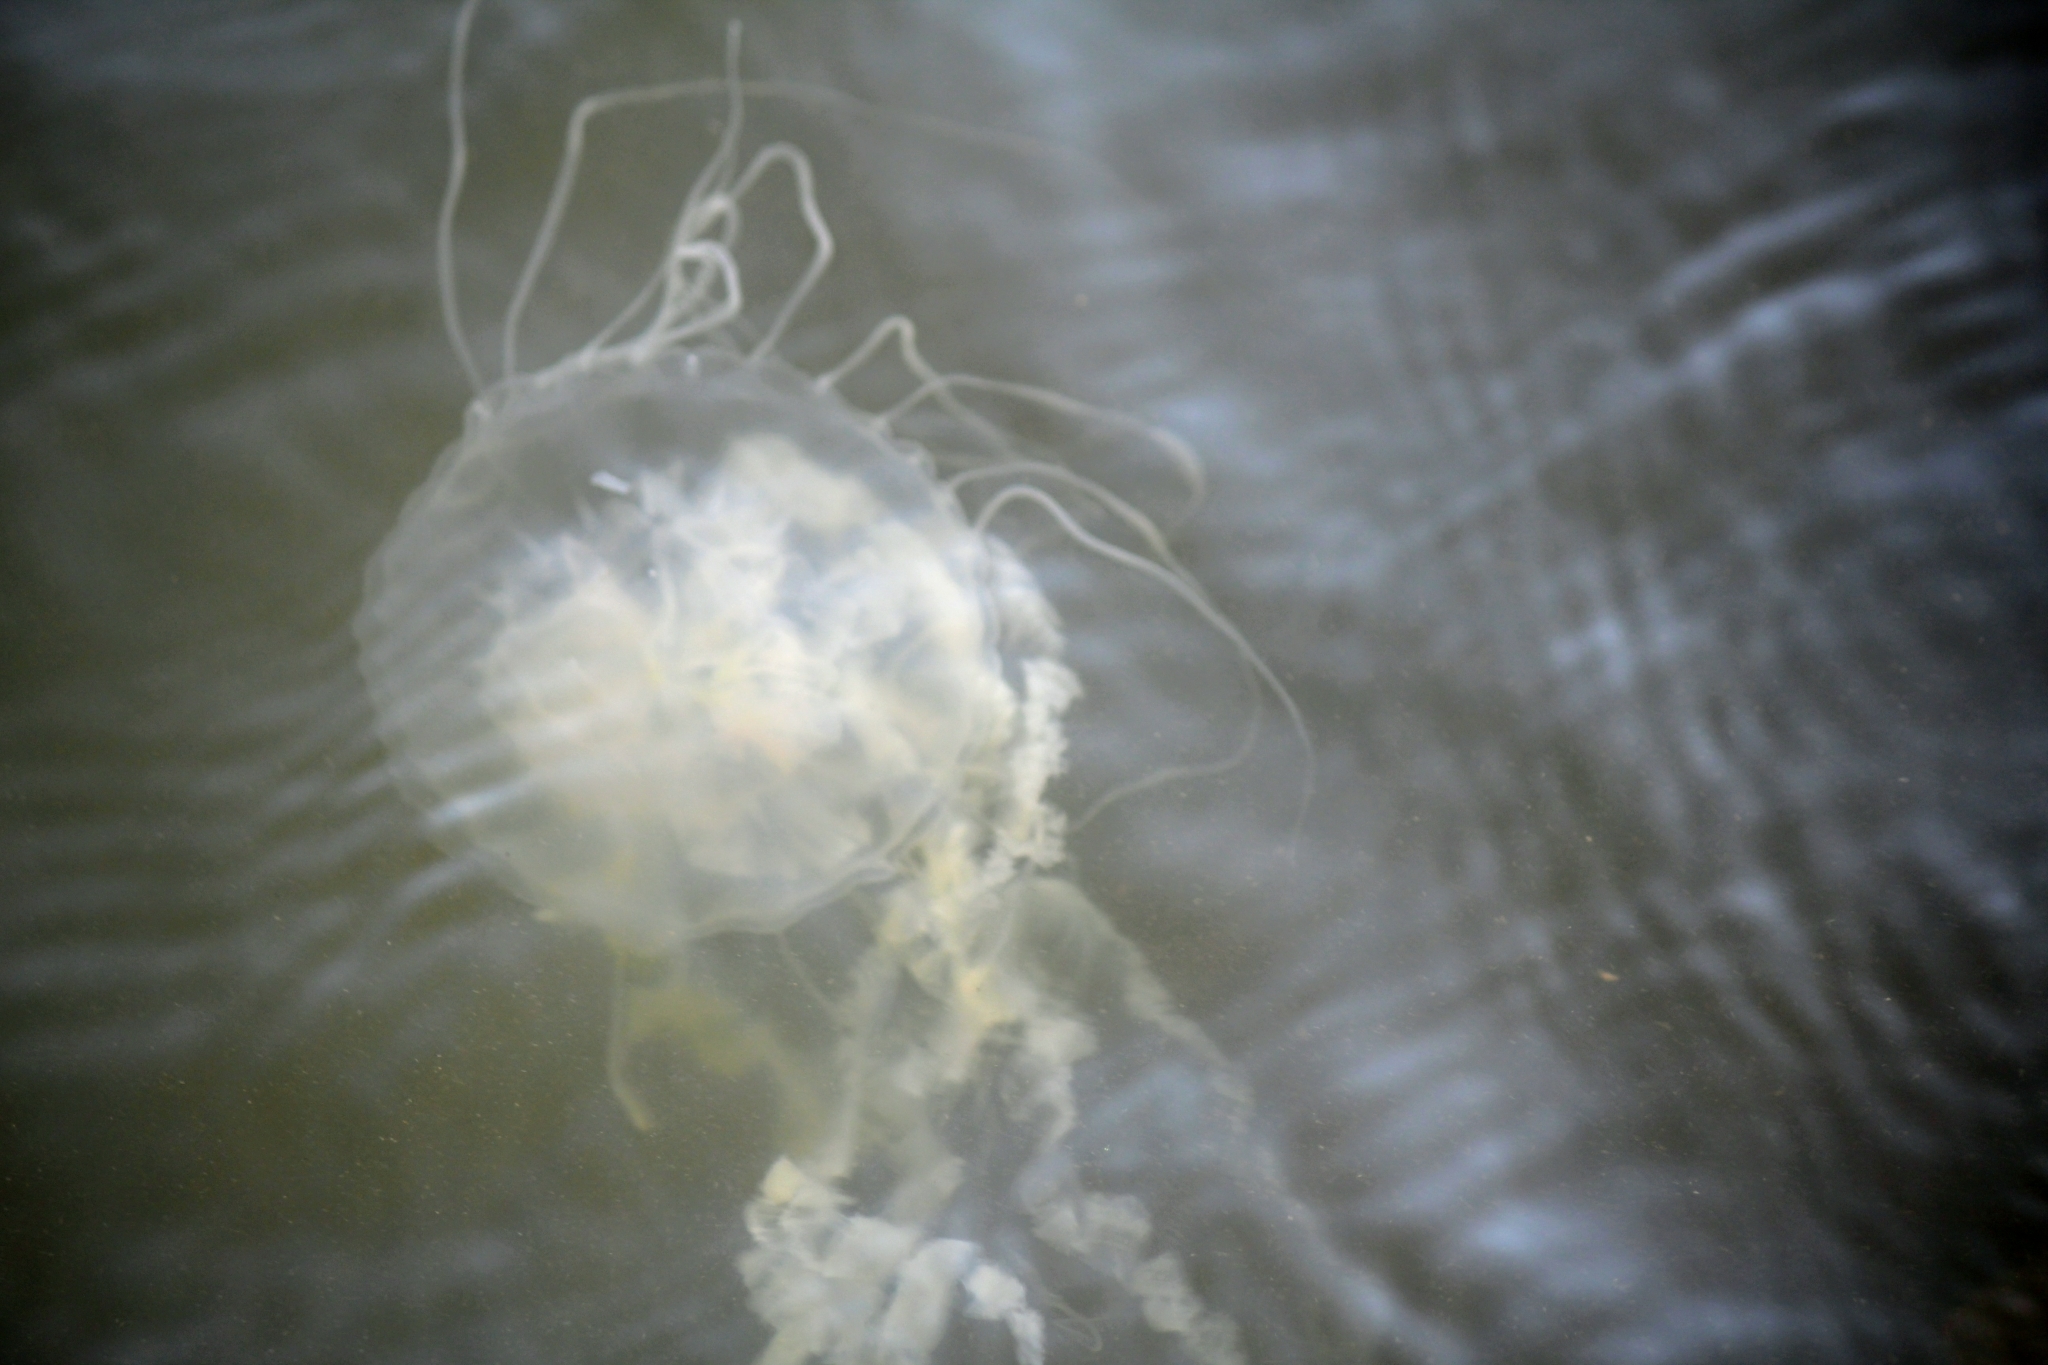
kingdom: Animalia
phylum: Cnidaria
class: Scyphozoa
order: Semaeostomeae
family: Pelagiidae
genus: Chrysaora
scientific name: Chrysaora chesapeakei
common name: Bay nettle
